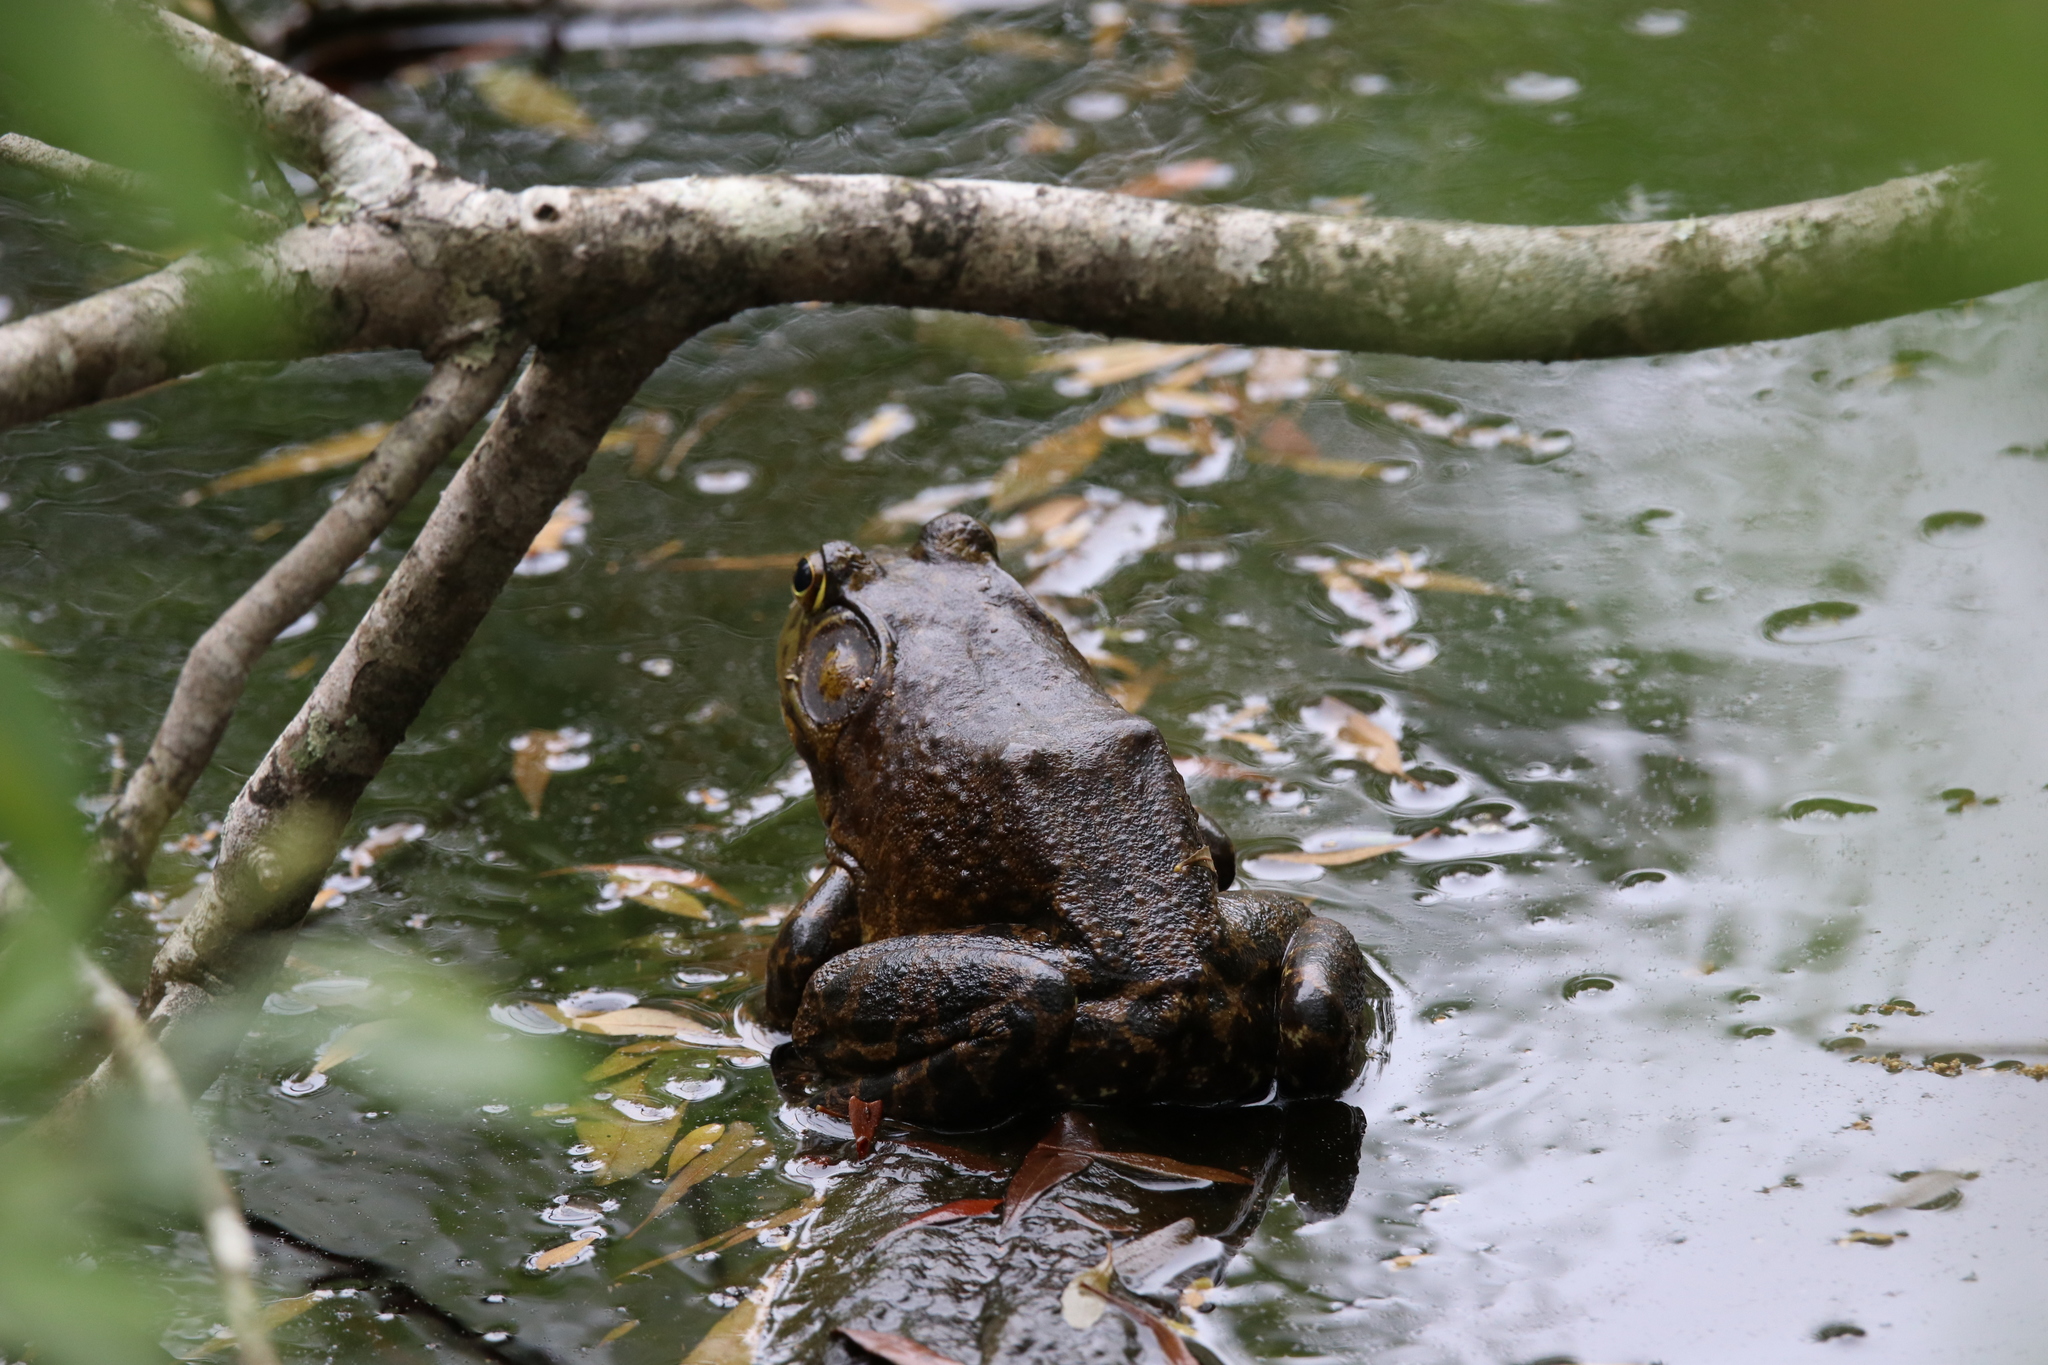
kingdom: Animalia
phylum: Chordata
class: Amphibia
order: Anura
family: Ranidae
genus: Lithobates
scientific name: Lithobates catesbeianus
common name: American bullfrog
